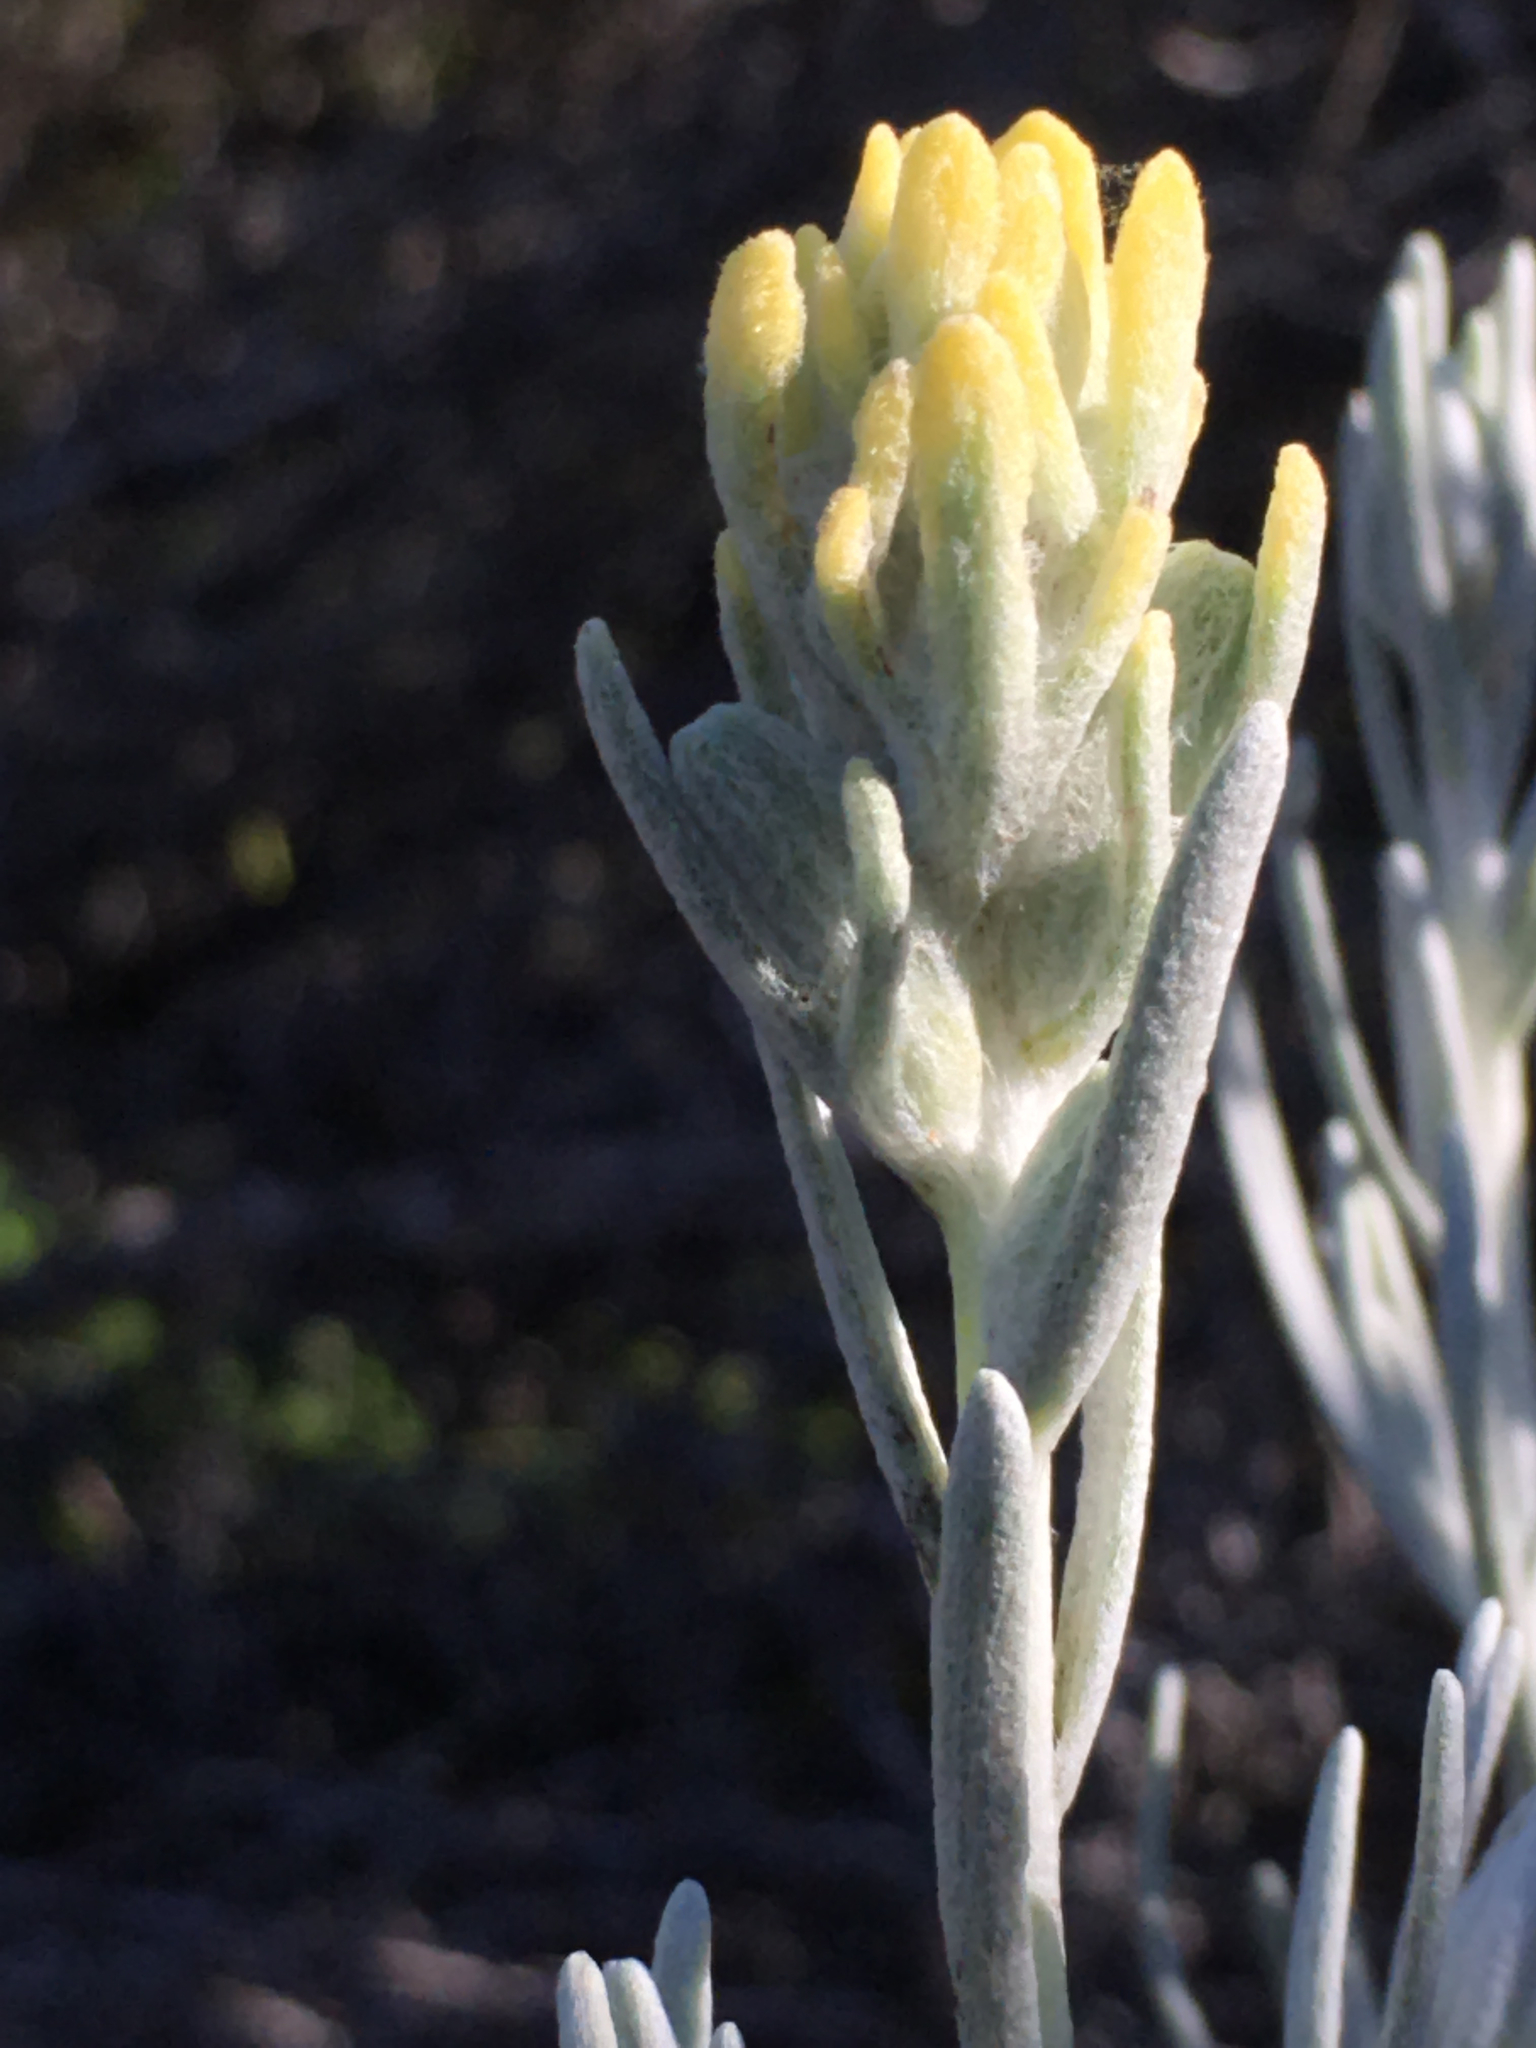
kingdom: Plantae
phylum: Tracheophyta
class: Magnoliopsida
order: Lamiales
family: Orobanchaceae
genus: Castilleja
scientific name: Castilleja hololeuca
